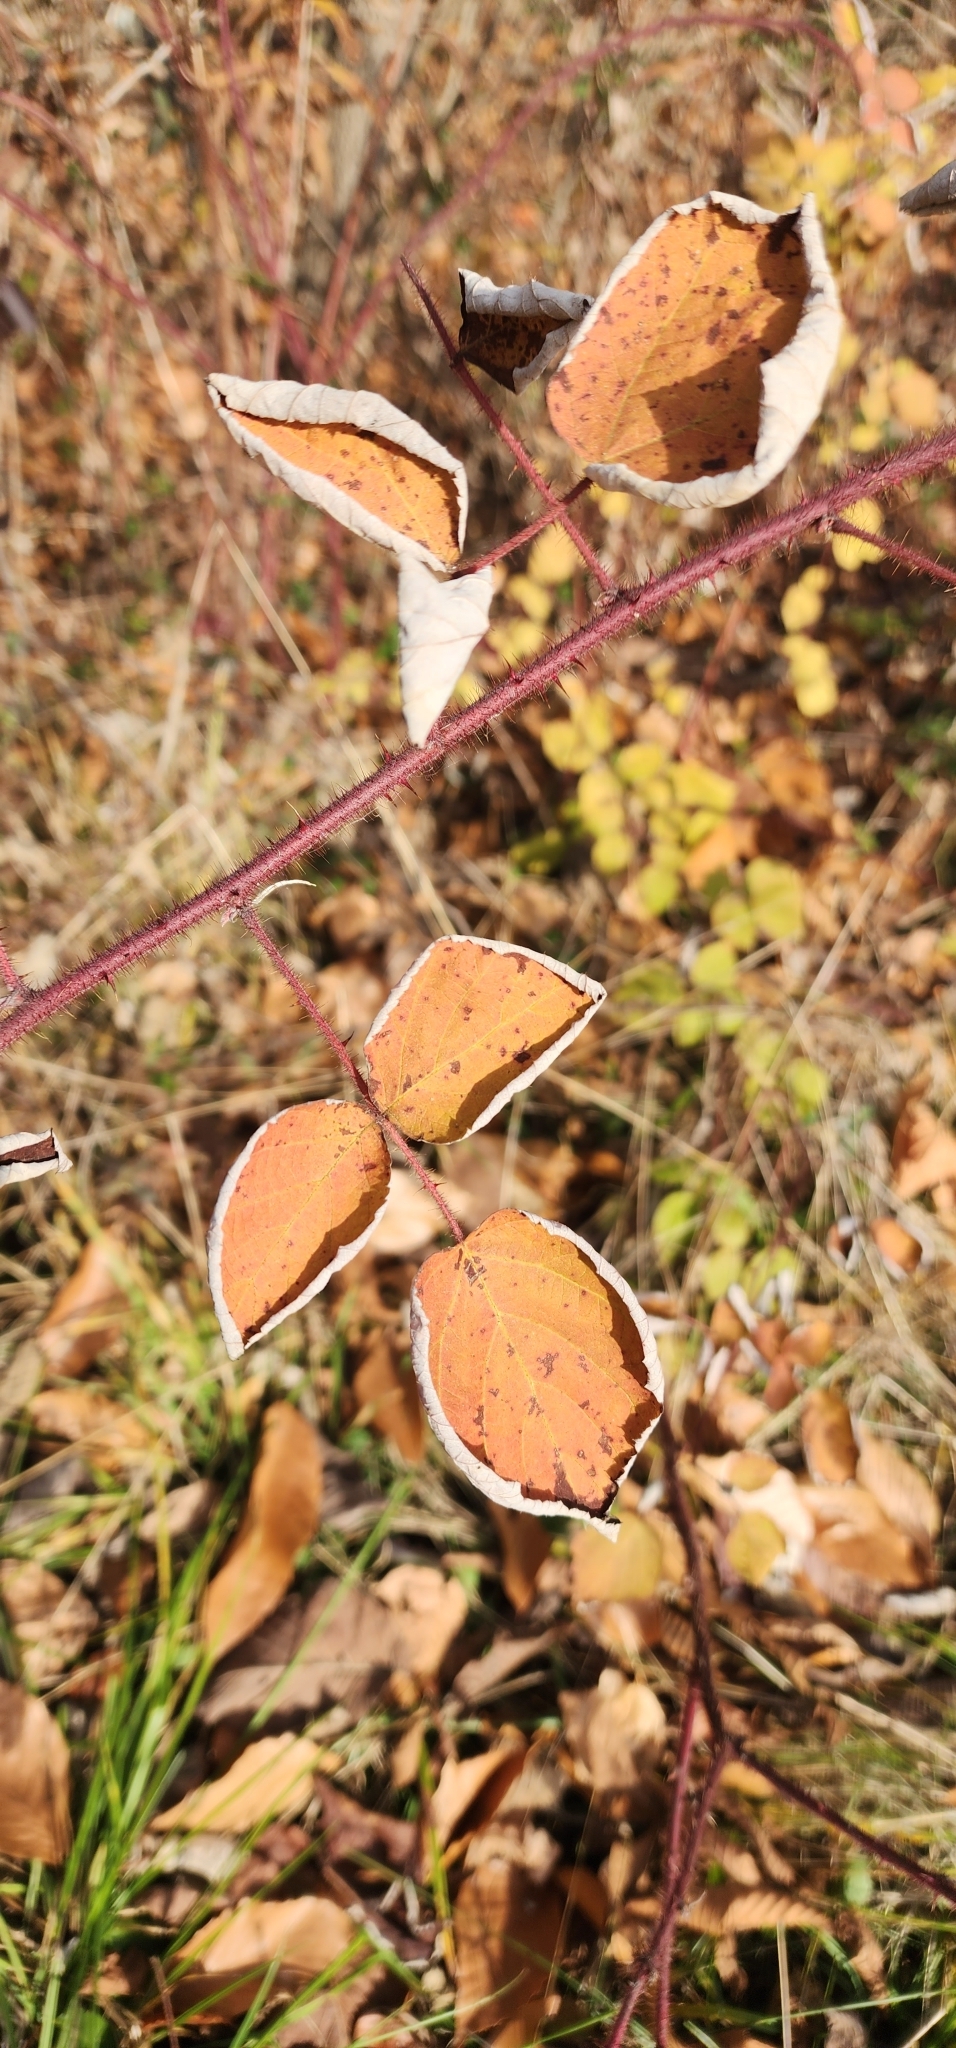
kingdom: Plantae
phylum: Tracheophyta
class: Magnoliopsida
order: Rosales
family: Rosaceae
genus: Rubus
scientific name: Rubus phoenicolasius
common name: Japanese wineberry
